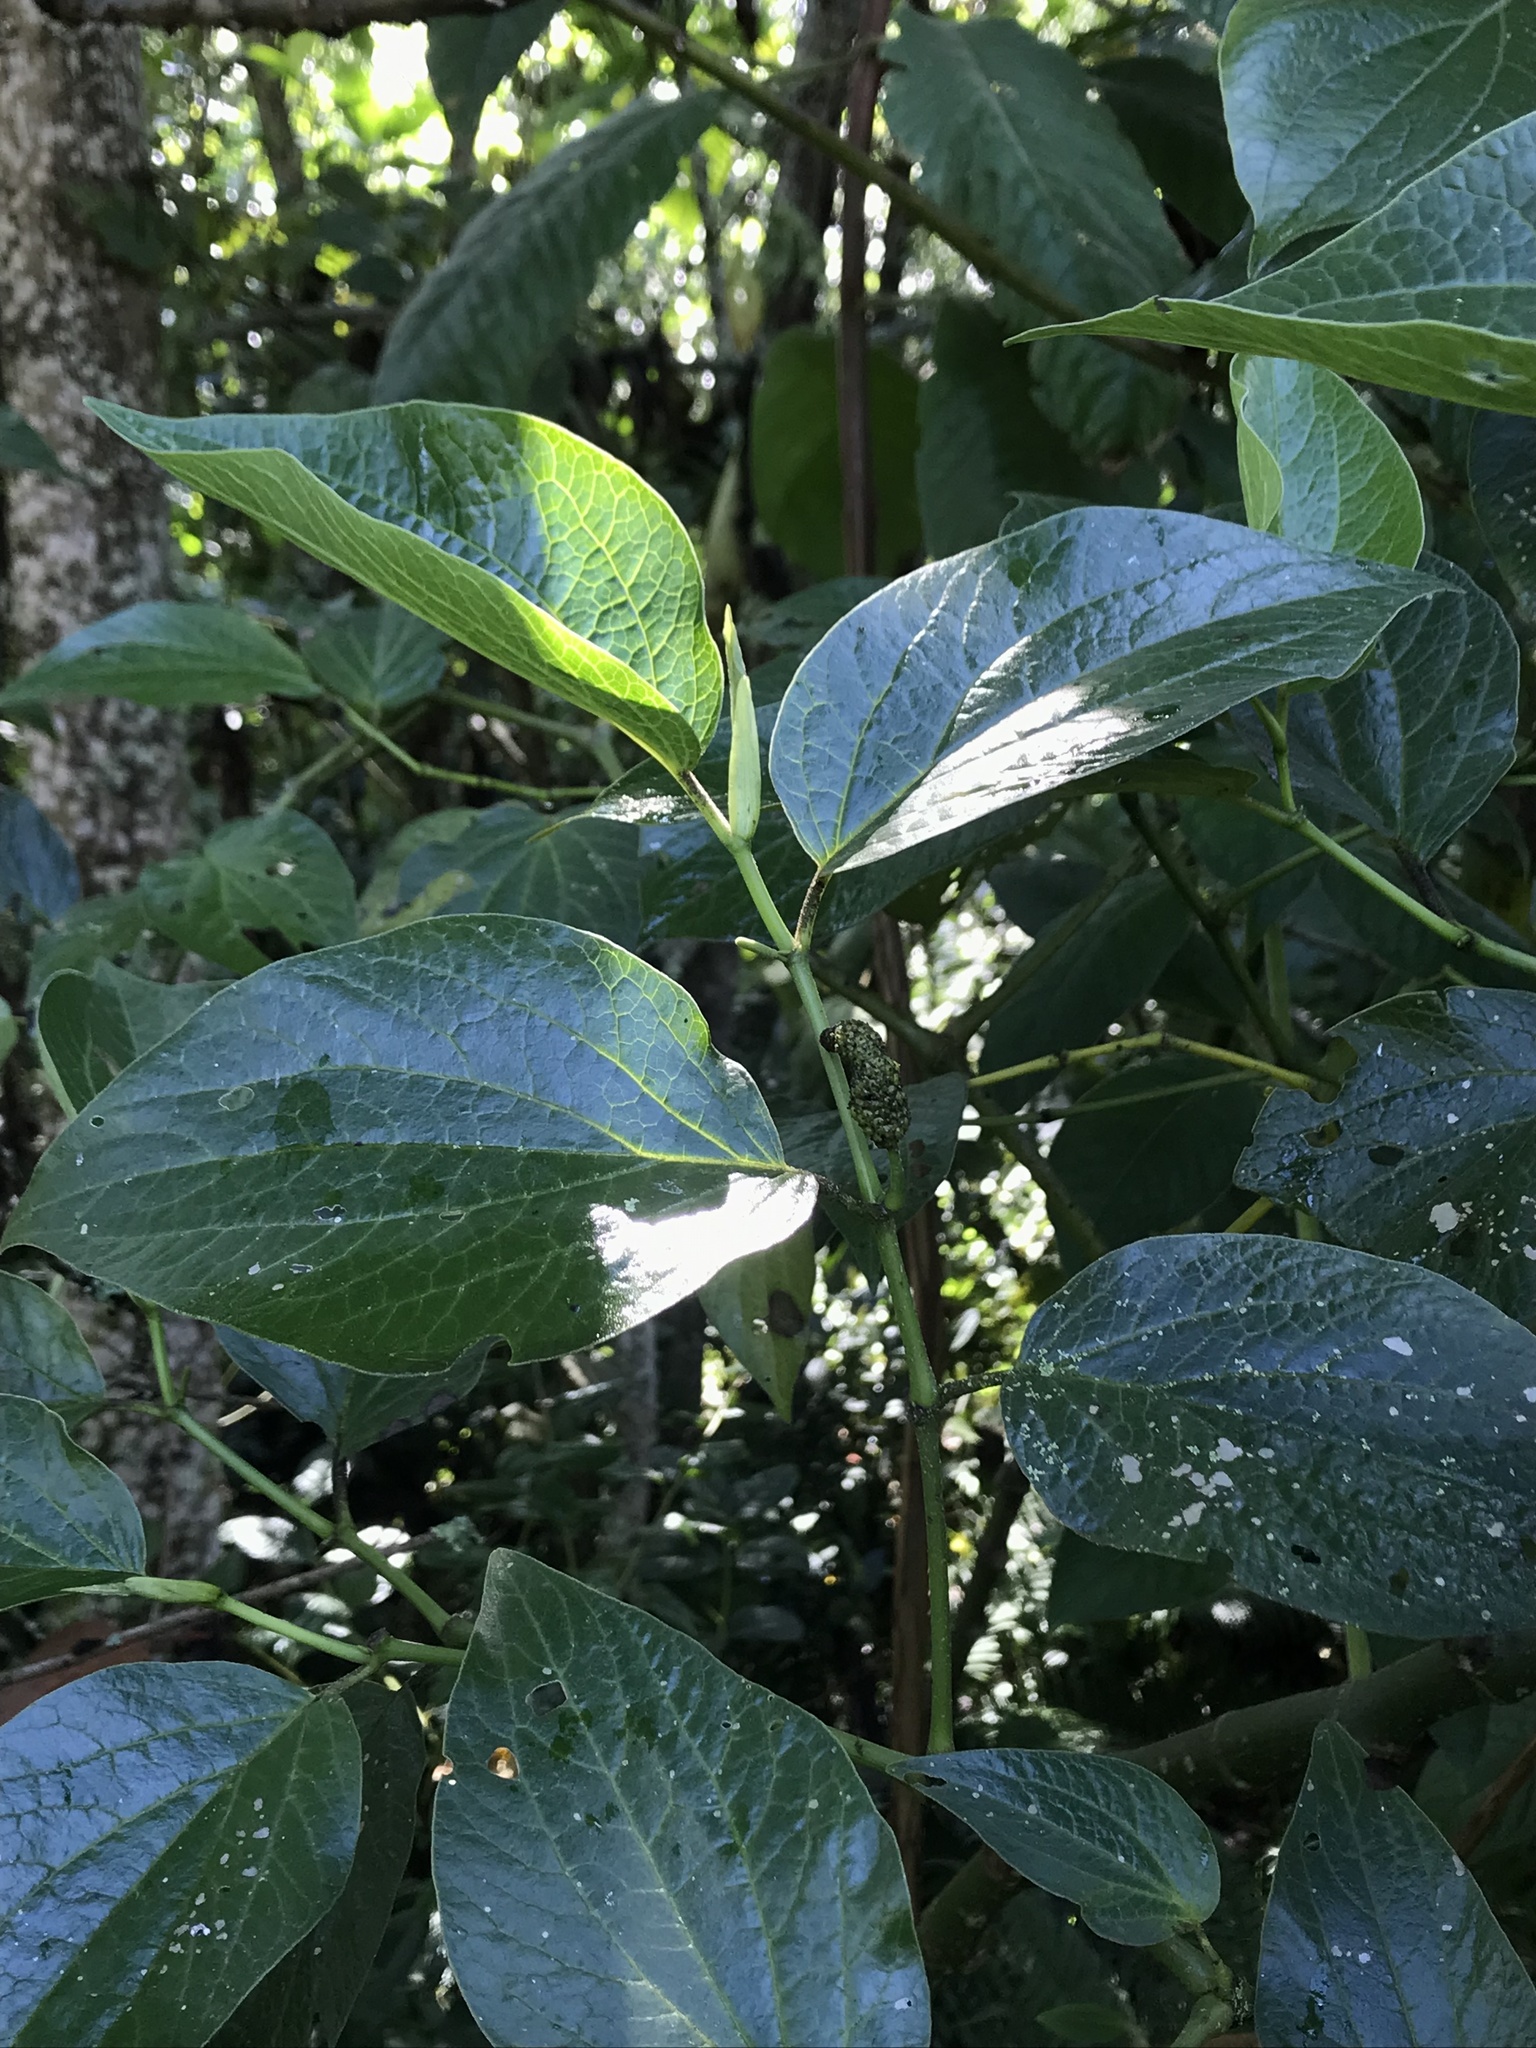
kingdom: Plantae
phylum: Tracheophyta
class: Magnoliopsida
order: Piperales
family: Piperaceae
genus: Piper
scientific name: Piper barbatum
